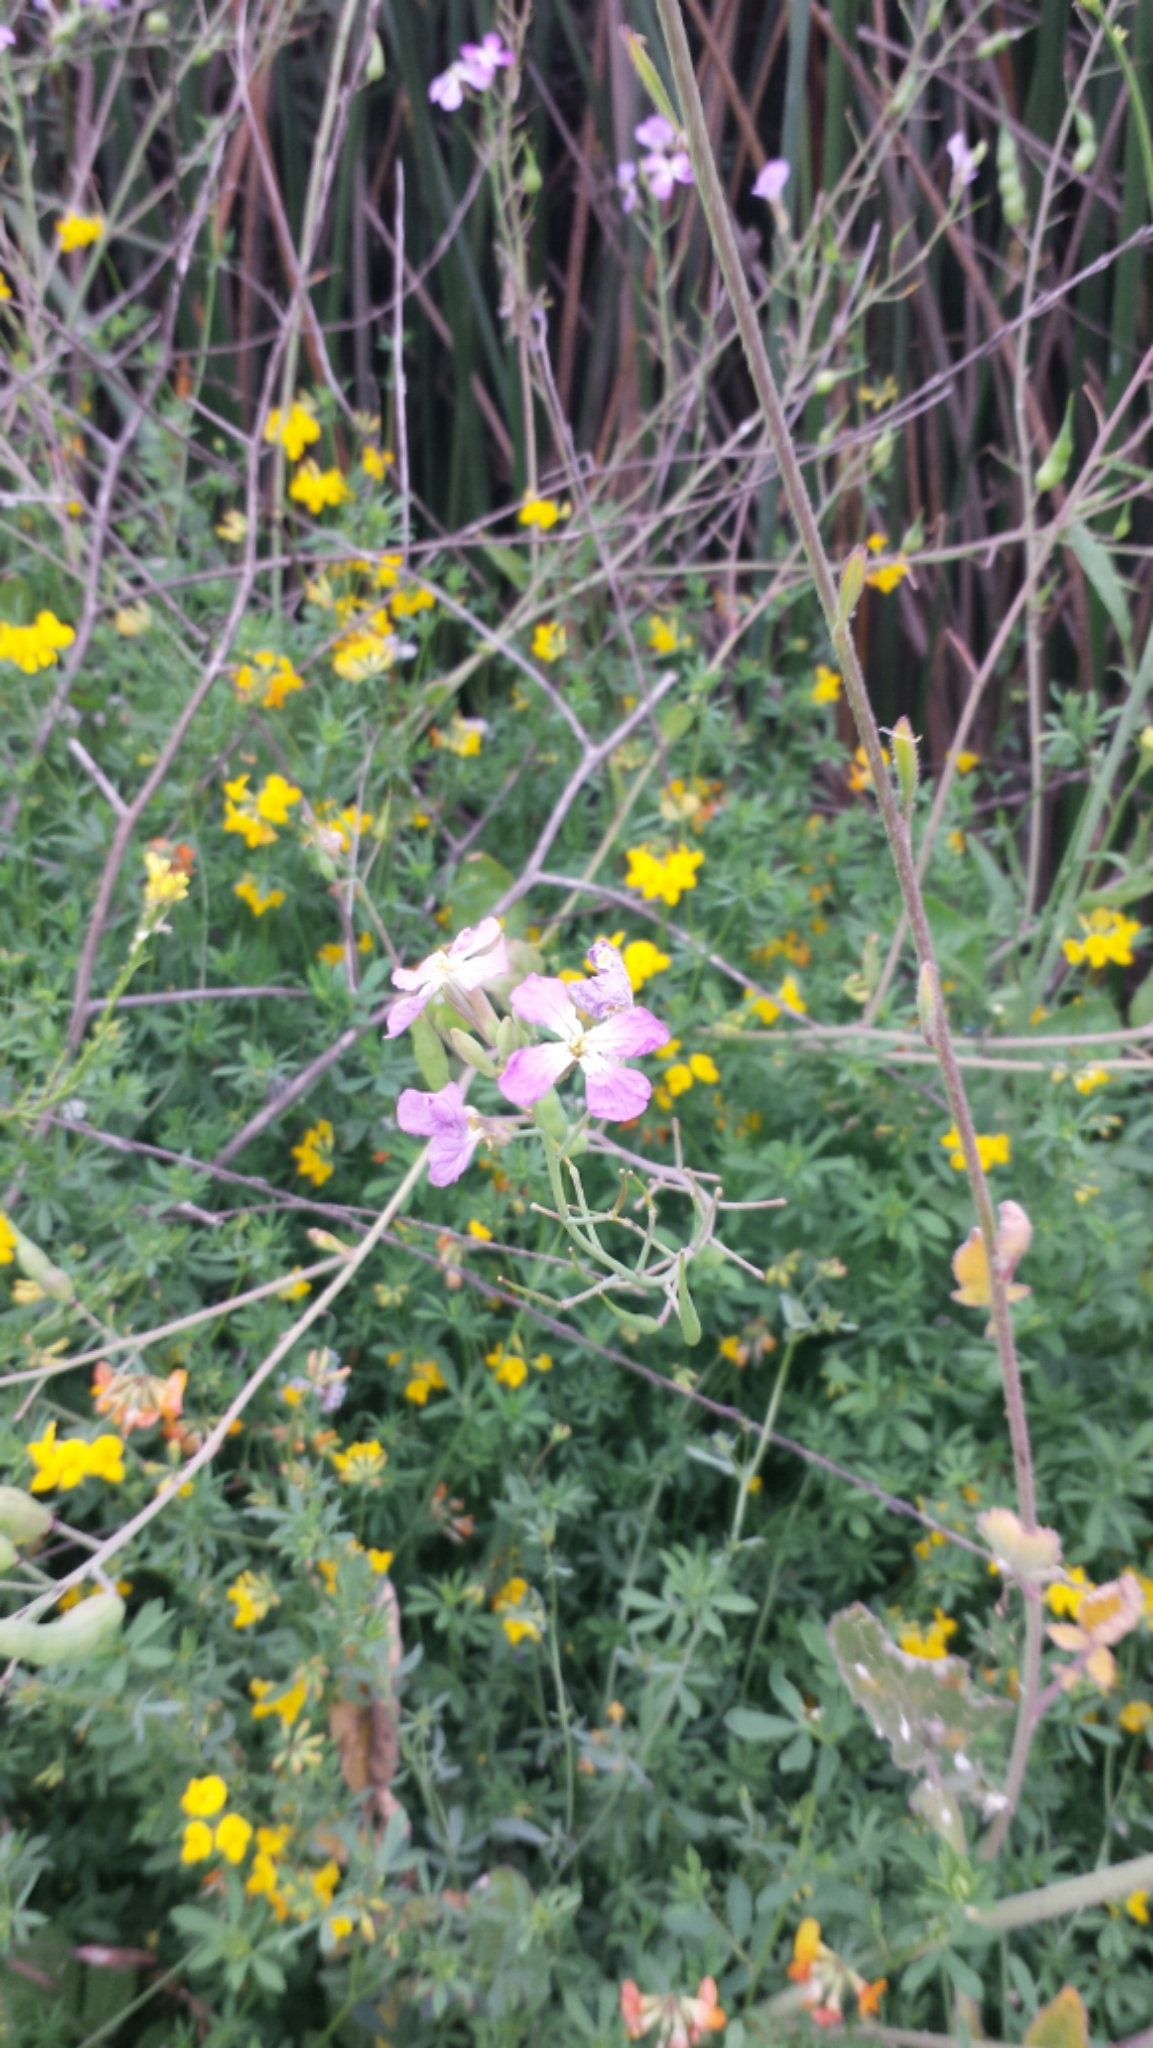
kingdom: Plantae
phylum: Tracheophyta
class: Magnoliopsida
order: Brassicales
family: Brassicaceae
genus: Raphanus
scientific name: Raphanus sativus
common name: Cultivated radish
